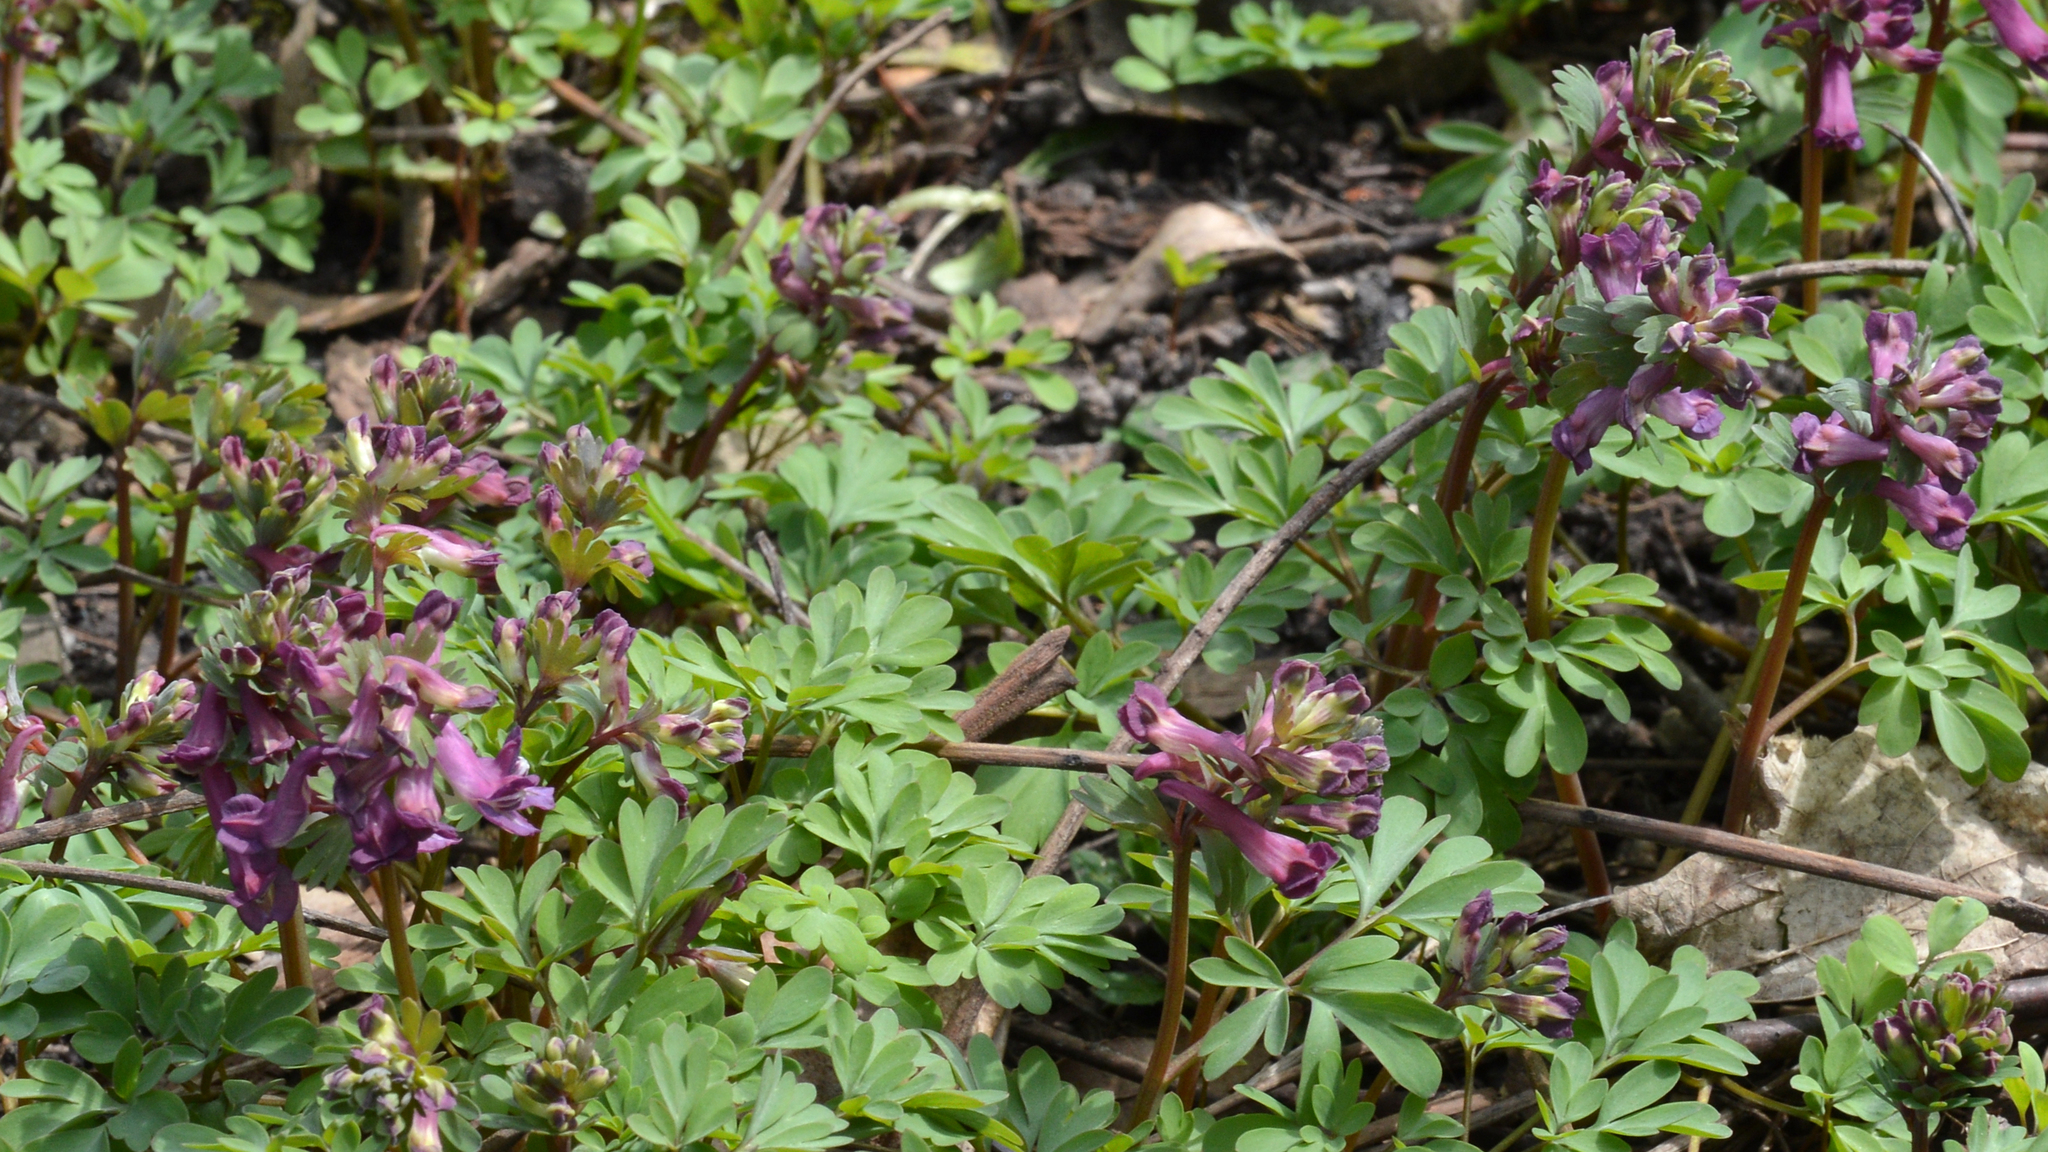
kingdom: Plantae
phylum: Tracheophyta
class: Magnoliopsida
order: Ranunculales
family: Papaveraceae
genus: Corydalis
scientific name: Corydalis solida
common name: Bird-in-a-bush
